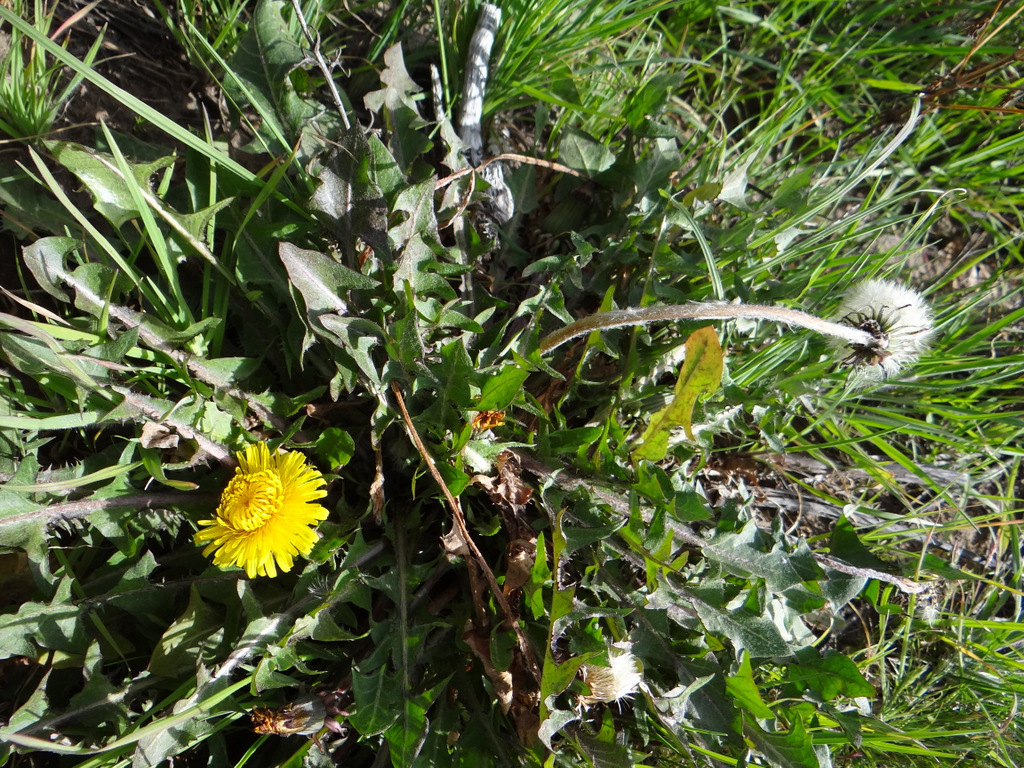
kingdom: Plantae
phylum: Tracheophyta
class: Magnoliopsida
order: Asterales
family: Asteraceae
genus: Taraxacum
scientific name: Taraxacum officinale
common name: Common dandelion
